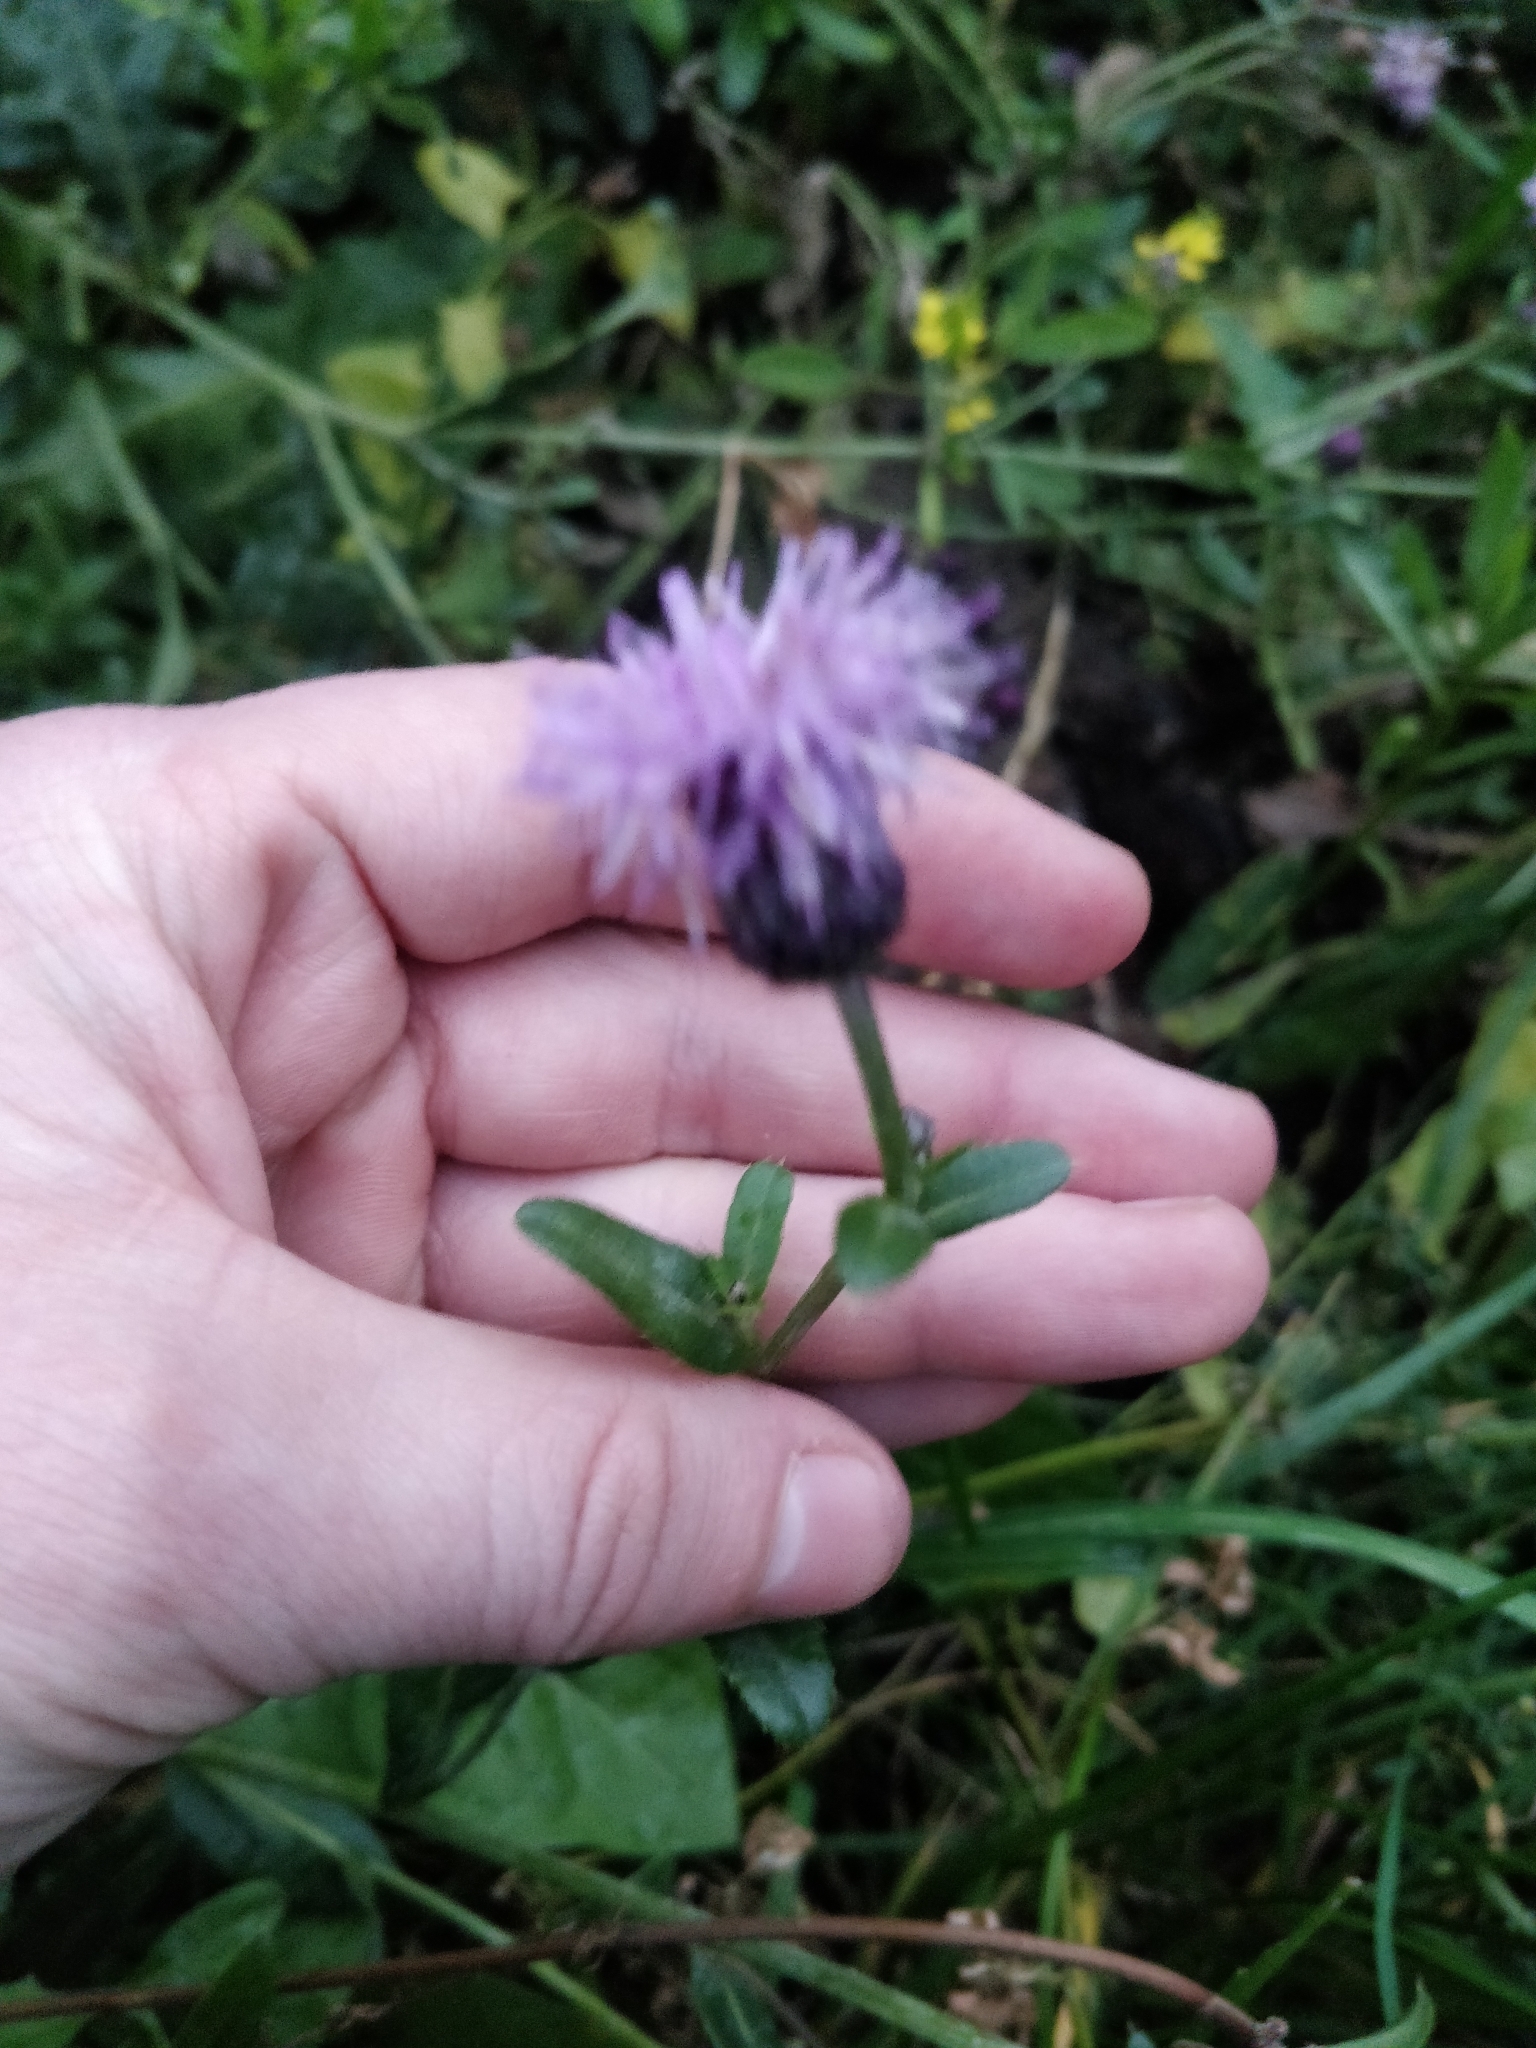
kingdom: Plantae
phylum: Tracheophyta
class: Magnoliopsida
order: Asterales
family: Asteraceae
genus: Cirsium
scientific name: Cirsium arvense
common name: Creeping thistle
